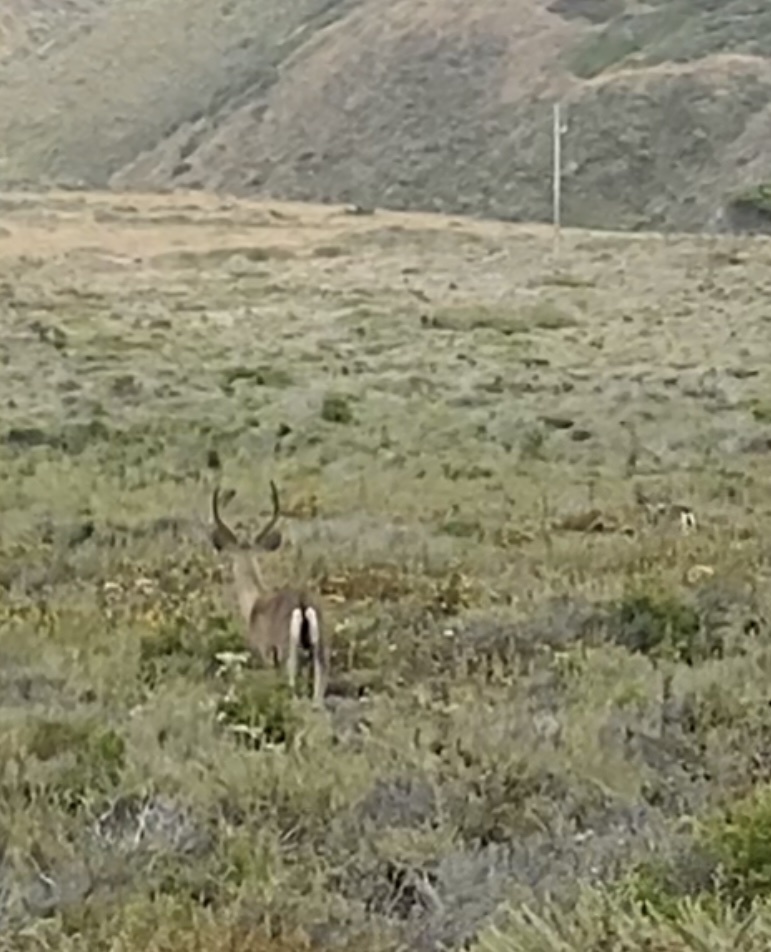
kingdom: Animalia
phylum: Chordata
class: Mammalia
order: Artiodactyla
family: Cervidae
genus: Odocoileus
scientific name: Odocoileus hemionus
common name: Mule deer
